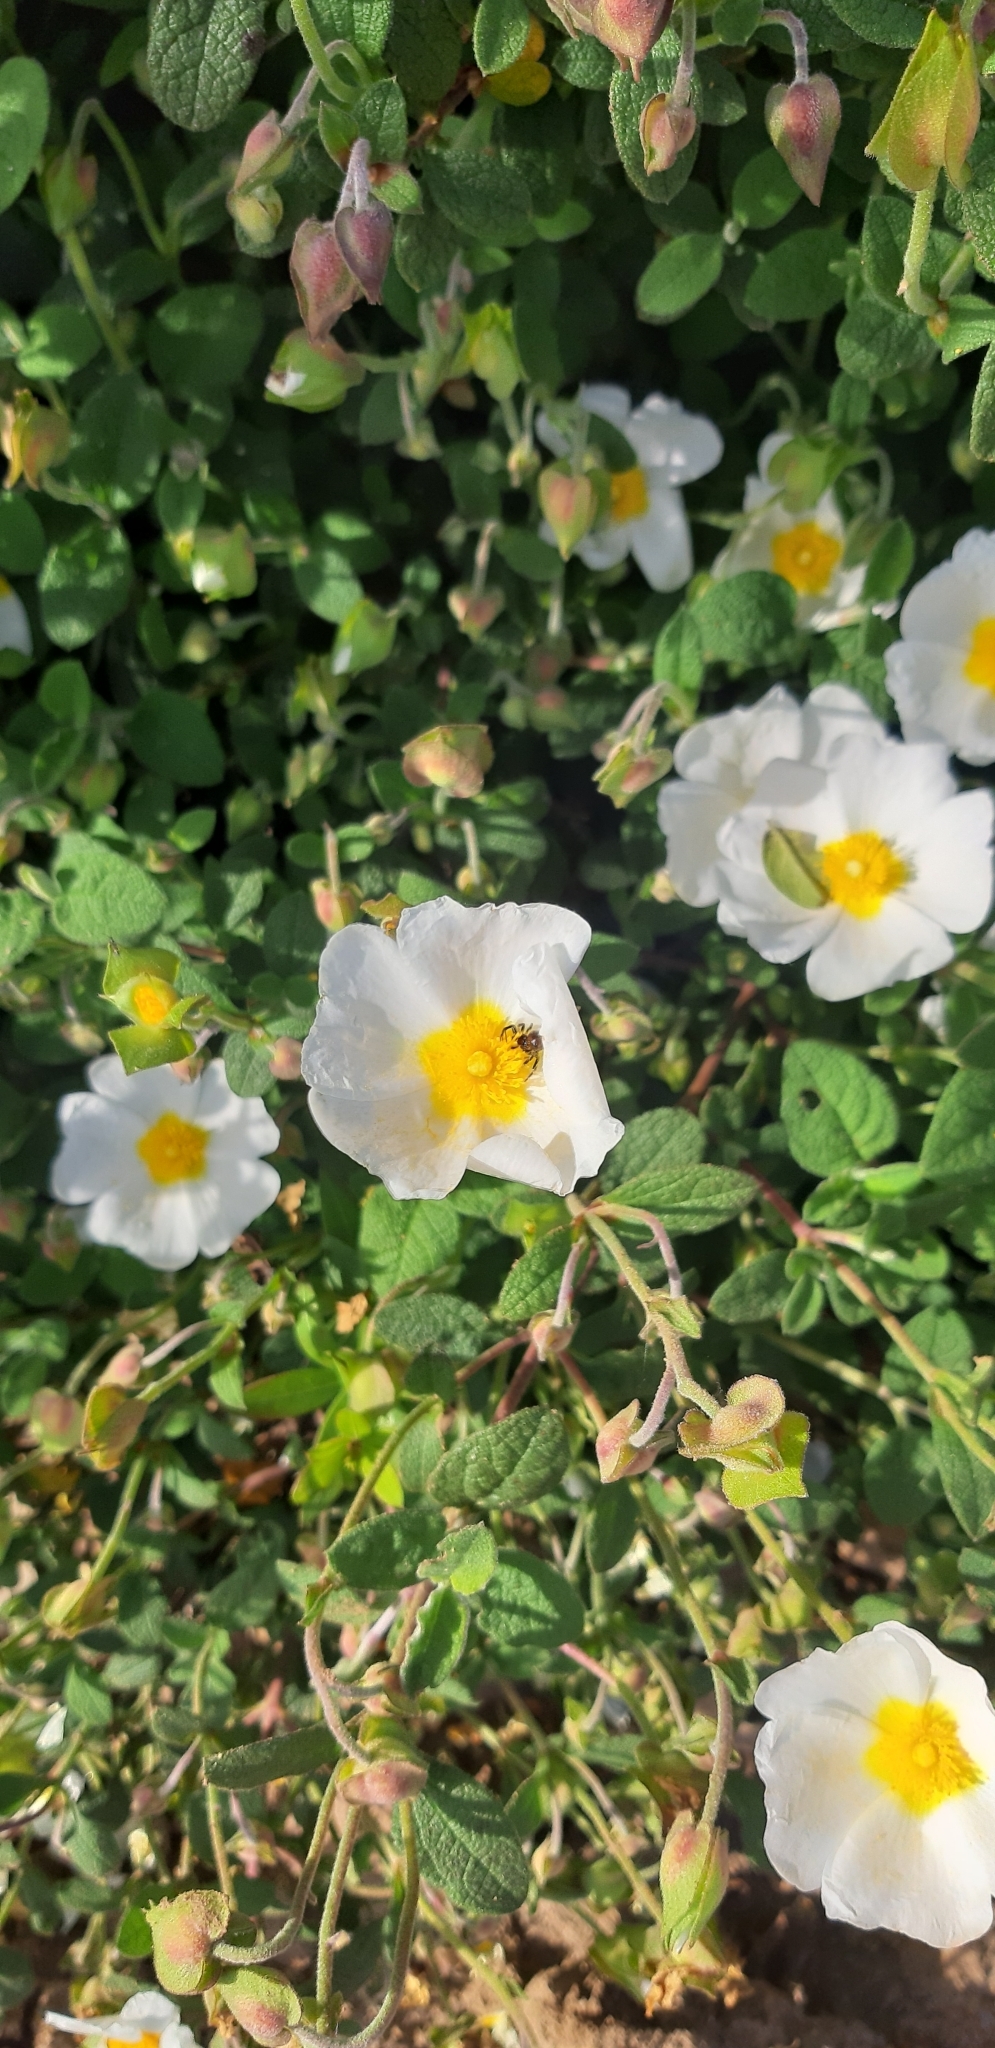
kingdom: Plantae
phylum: Tracheophyta
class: Magnoliopsida
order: Malvales
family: Cistaceae
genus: Cistus
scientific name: Cistus salviifolius
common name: Salvia cistus
